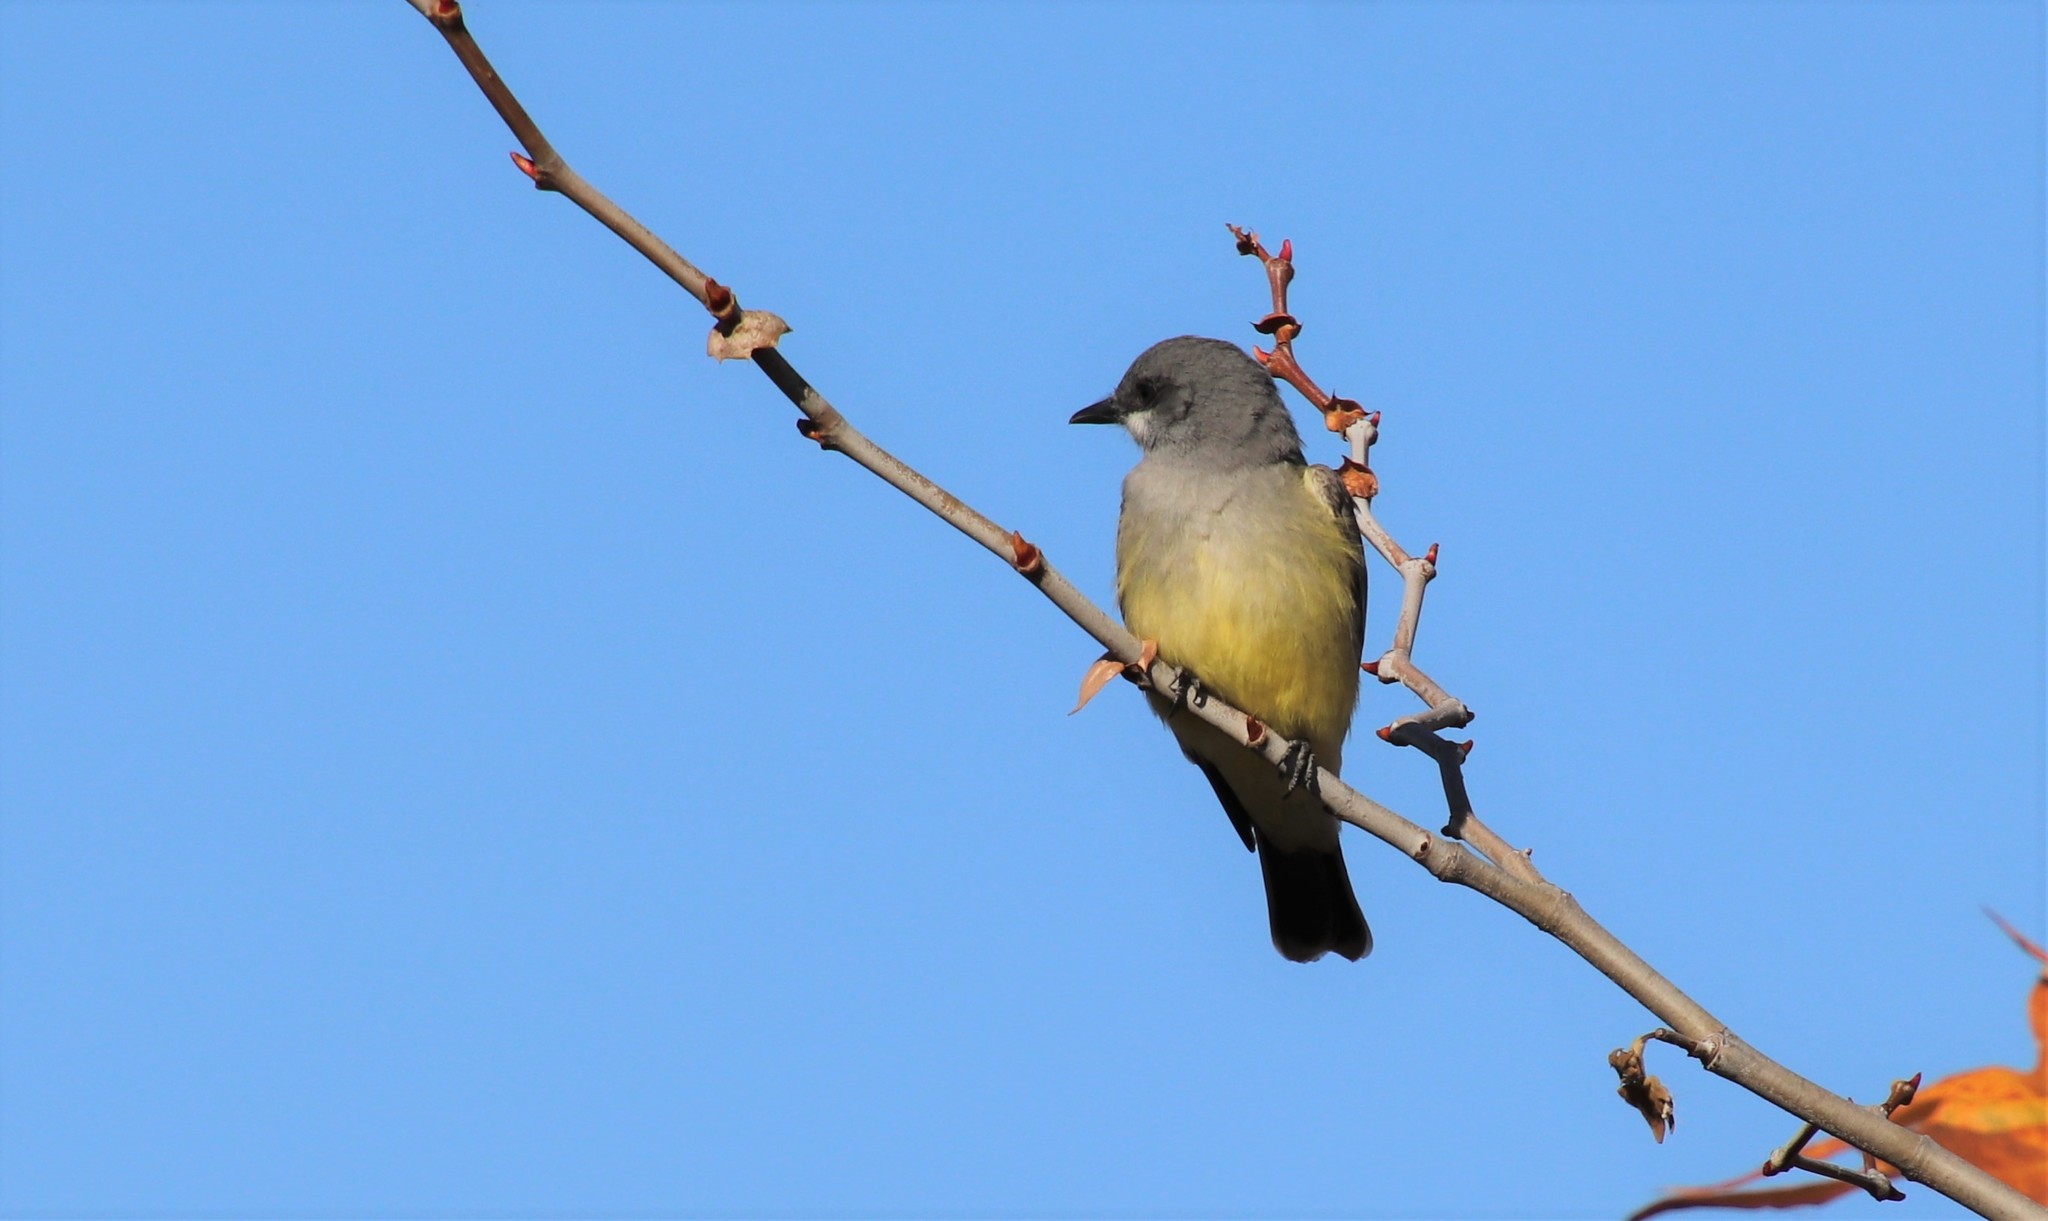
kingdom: Animalia
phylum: Chordata
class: Aves
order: Passeriformes
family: Tyrannidae
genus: Tyrannus
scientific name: Tyrannus vociferans
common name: Cassin's kingbird
